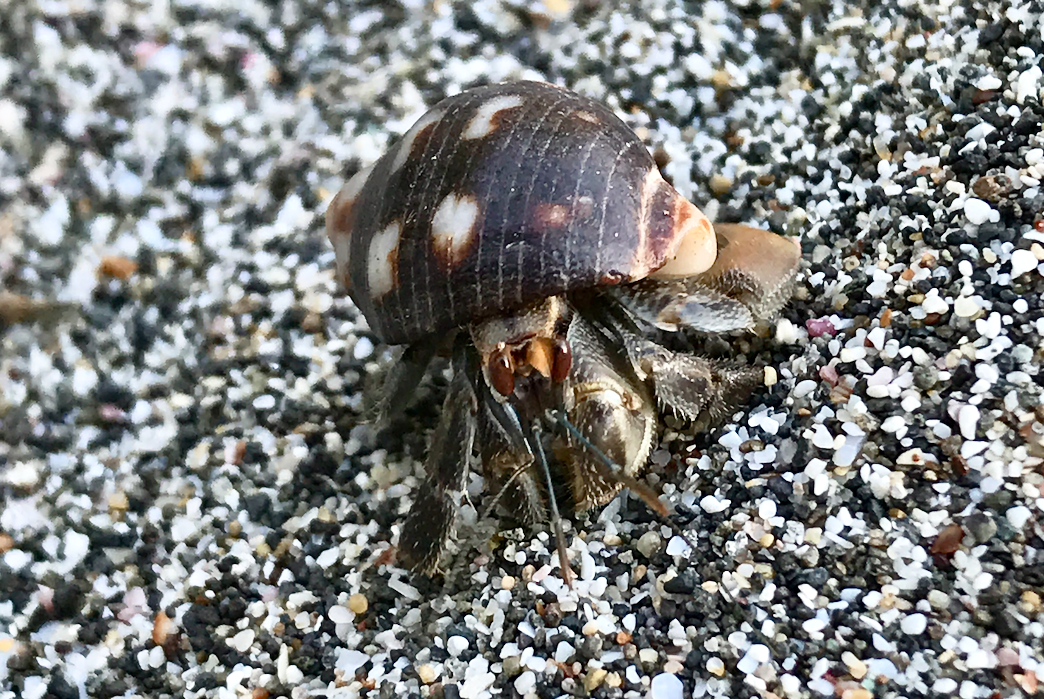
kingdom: Animalia
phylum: Arthropoda
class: Malacostraca
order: Decapoda
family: Coenobitidae
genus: Coenobita
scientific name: Coenobita compressus
